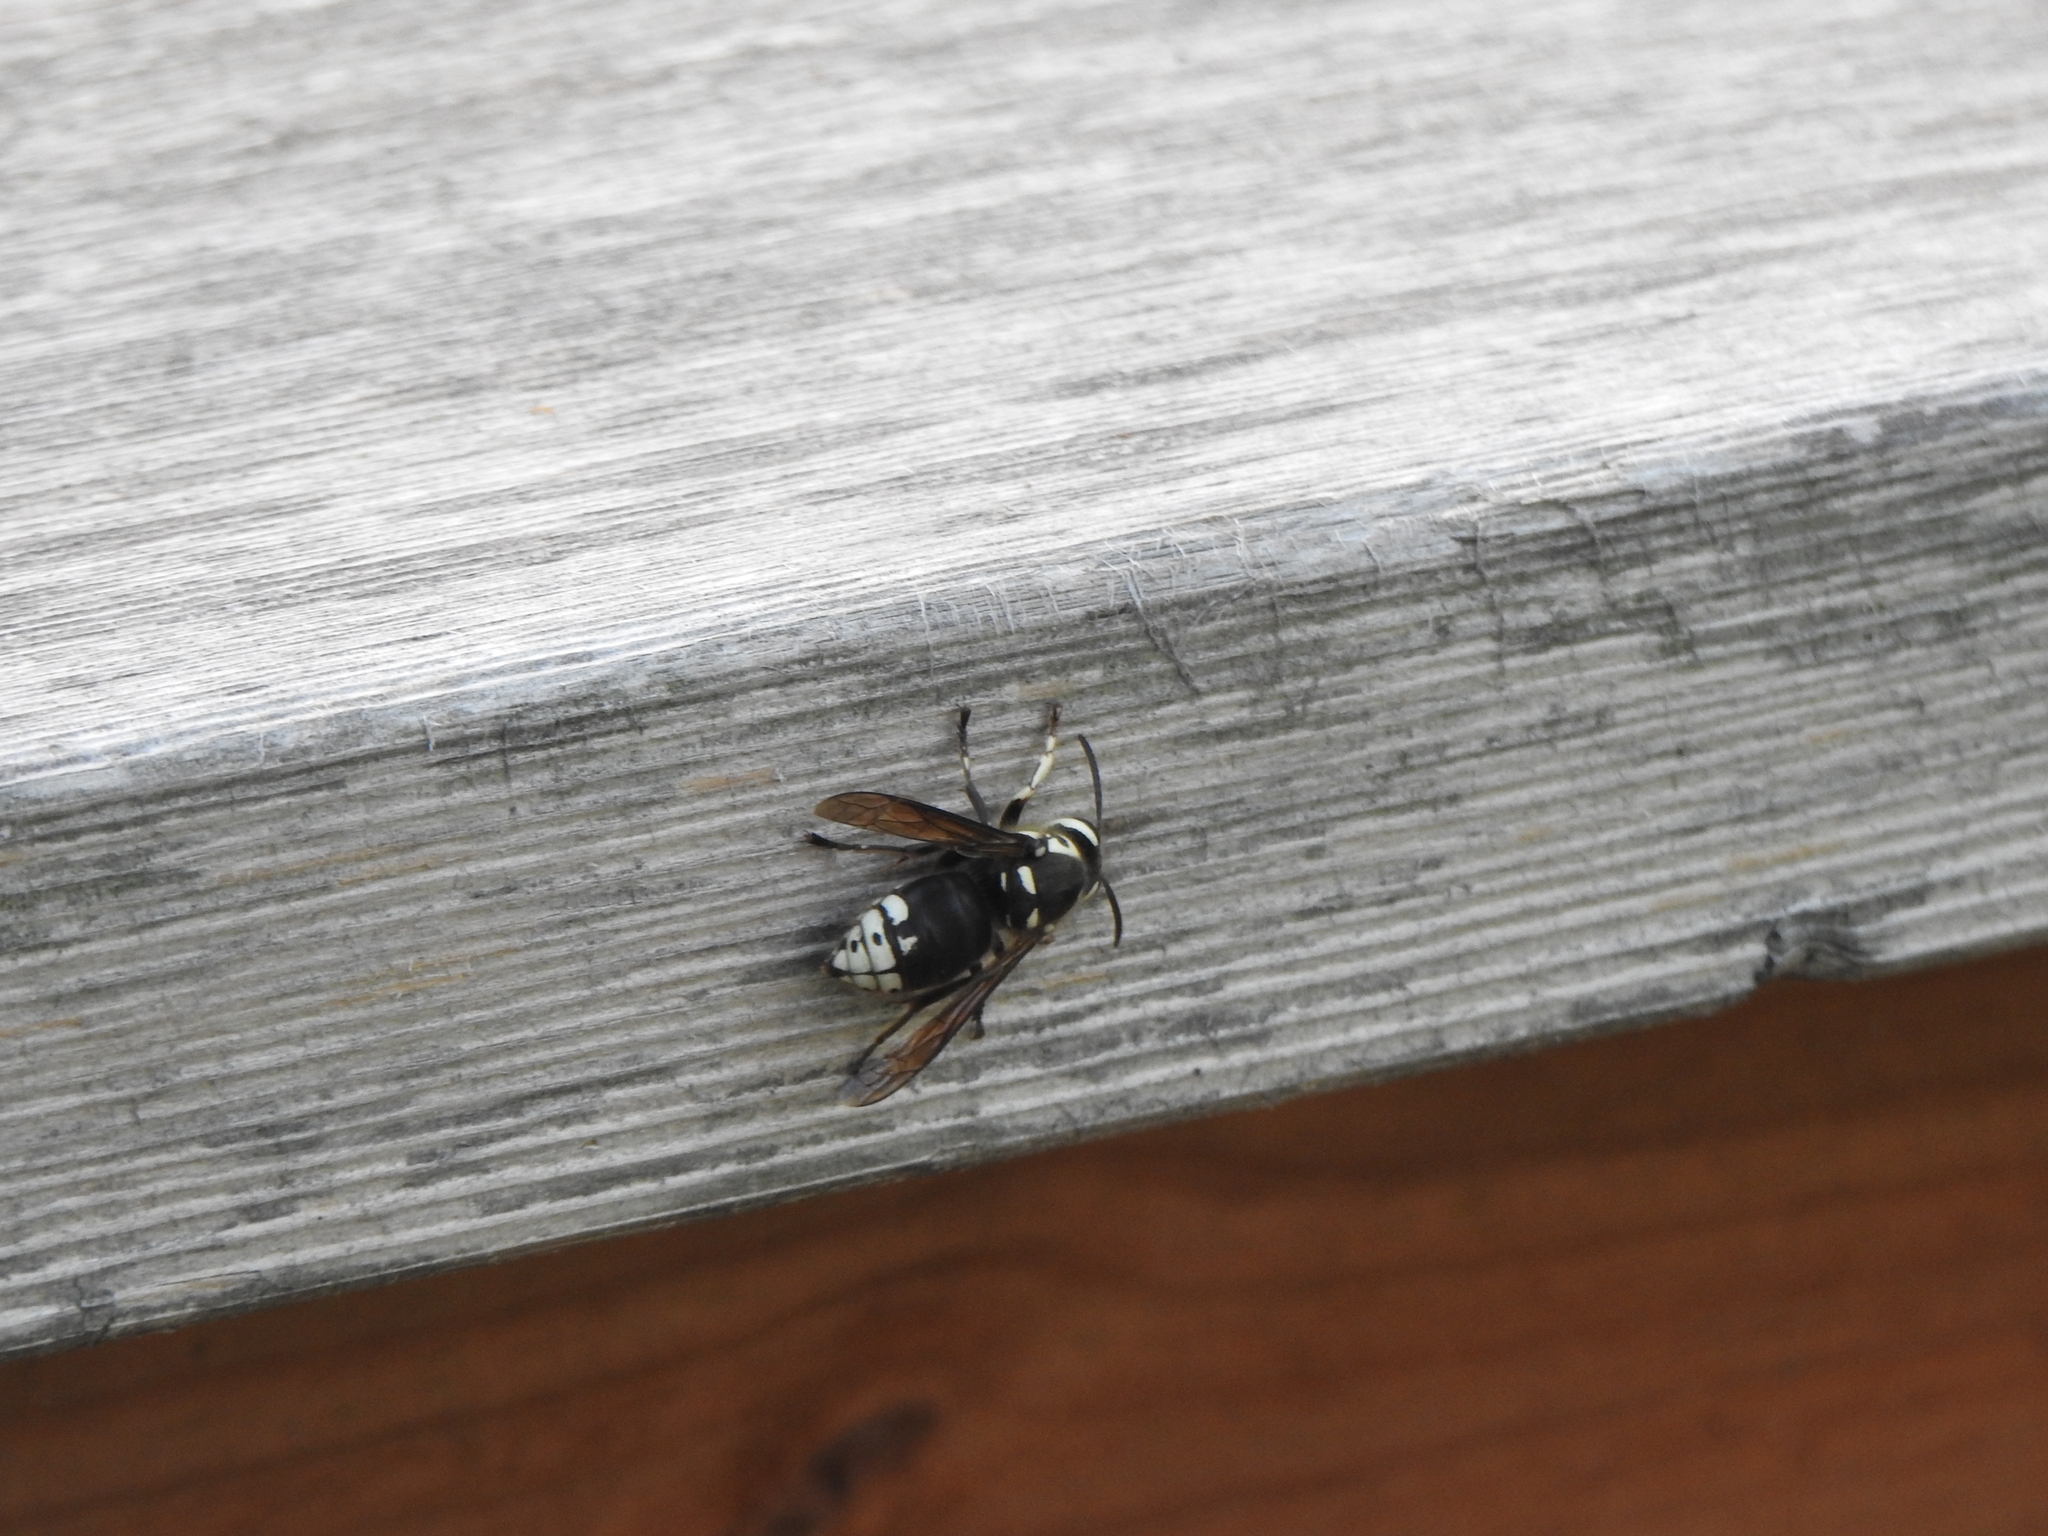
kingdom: Animalia
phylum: Arthropoda
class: Insecta
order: Hymenoptera
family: Vespidae
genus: Dolichovespula
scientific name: Dolichovespula maculata
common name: Bald-faced hornet
